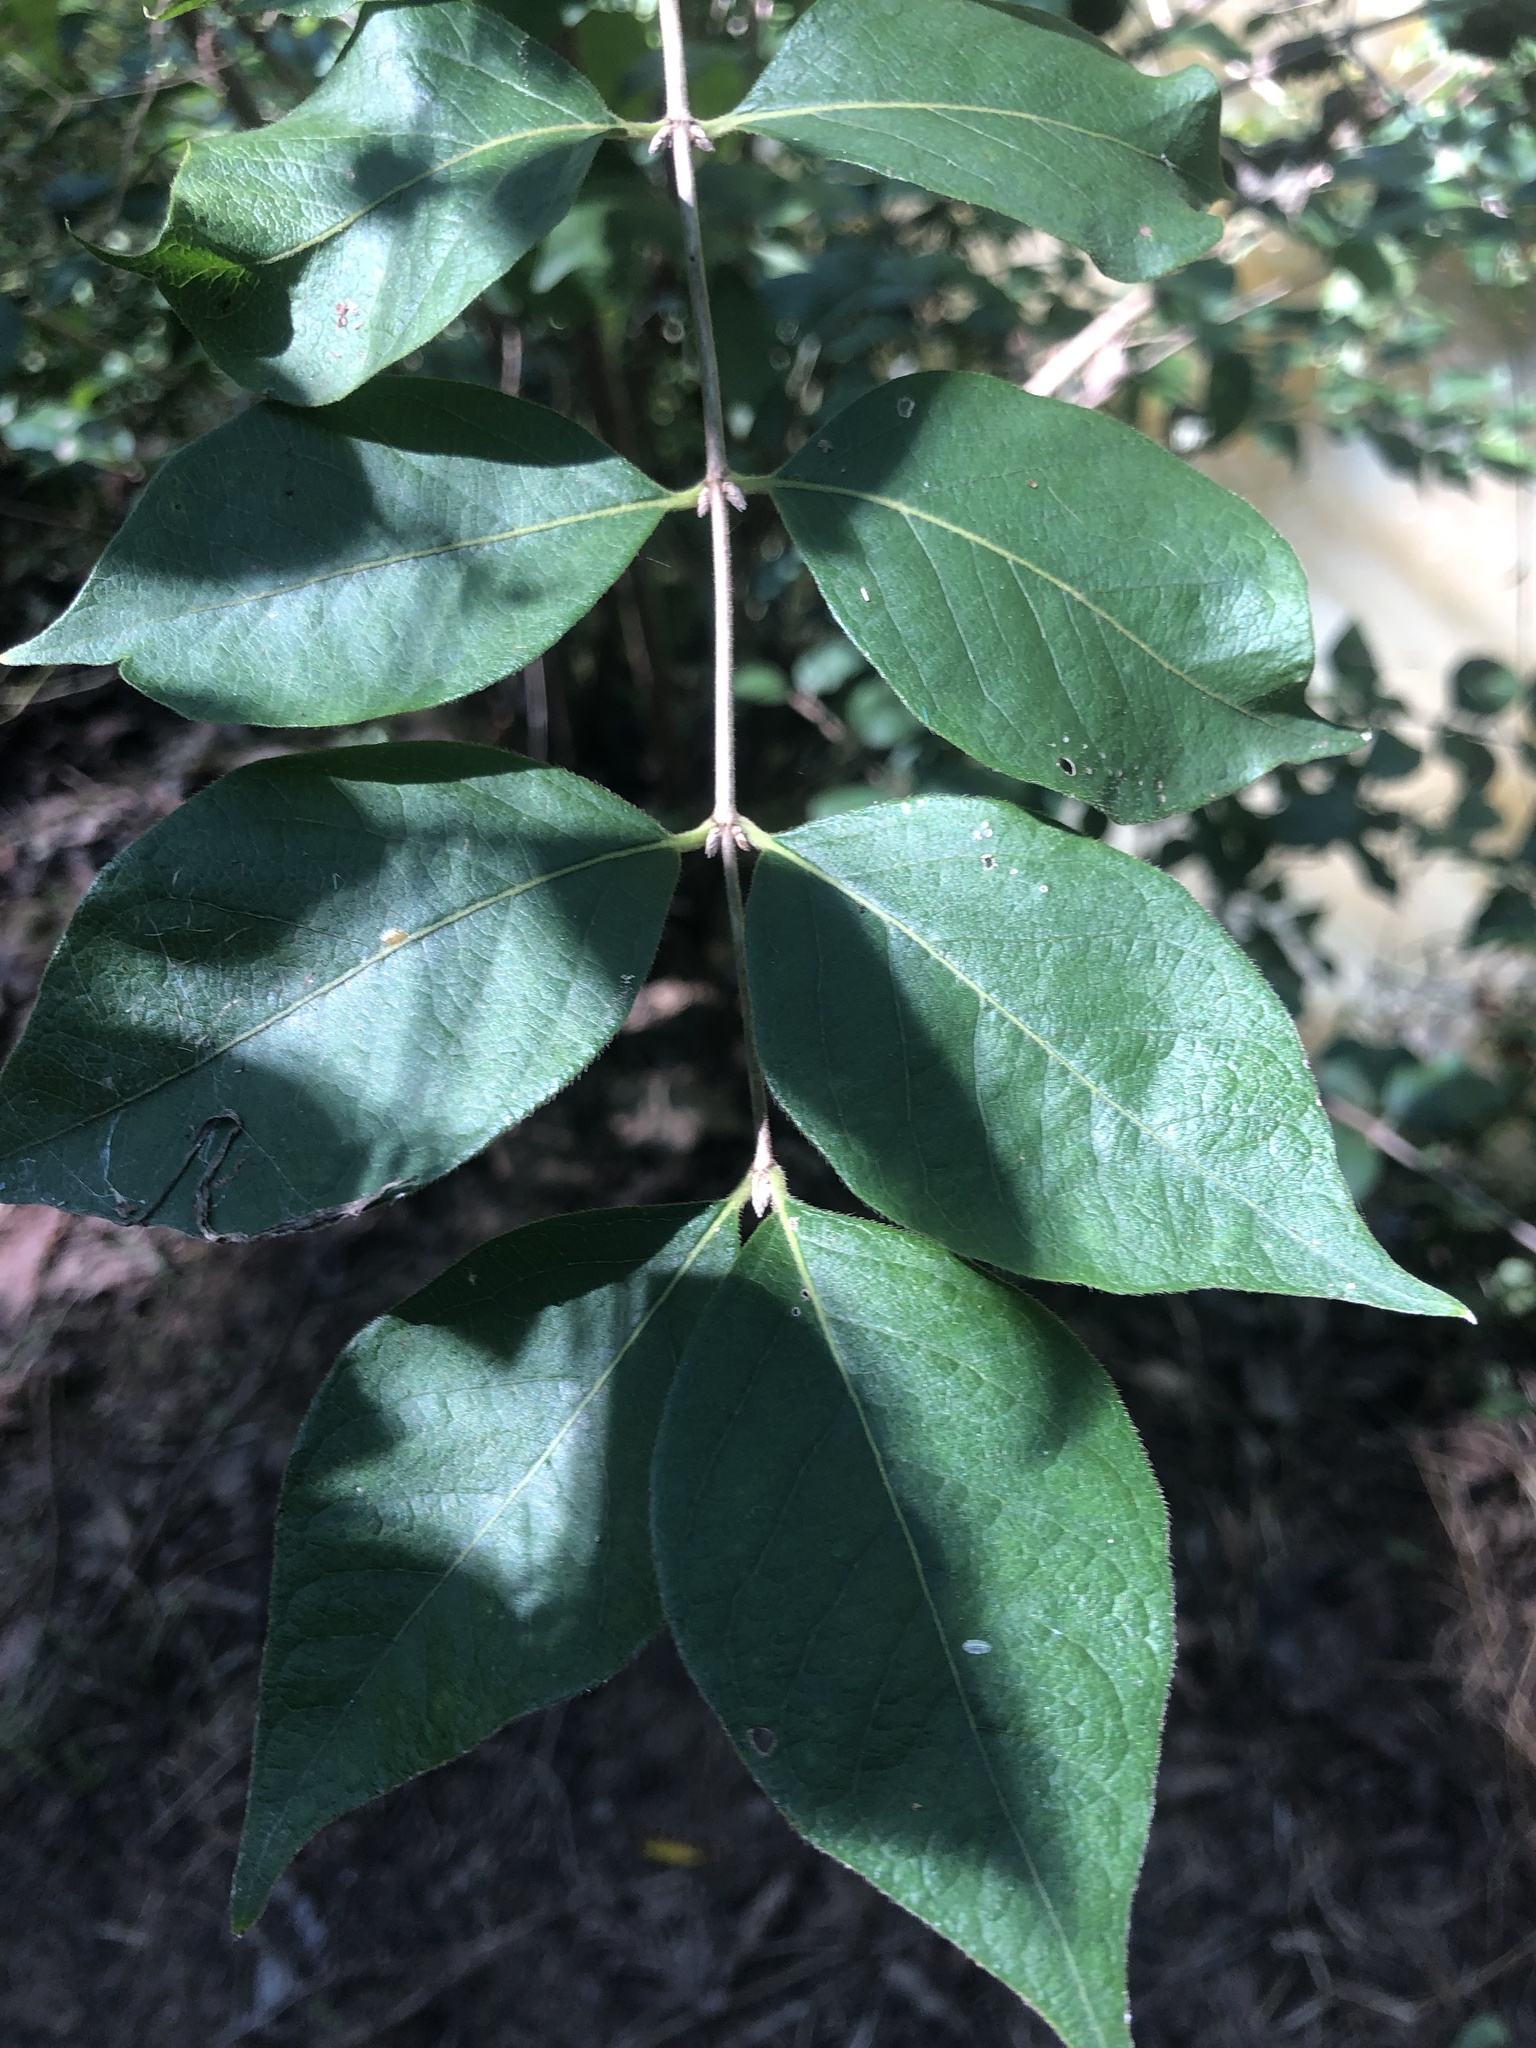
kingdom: Plantae
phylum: Tracheophyta
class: Magnoliopsida
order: Dipsacales
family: Caprifoliaceae
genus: Lonicera
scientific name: Lonicera maackii
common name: Amur honeysuckle
